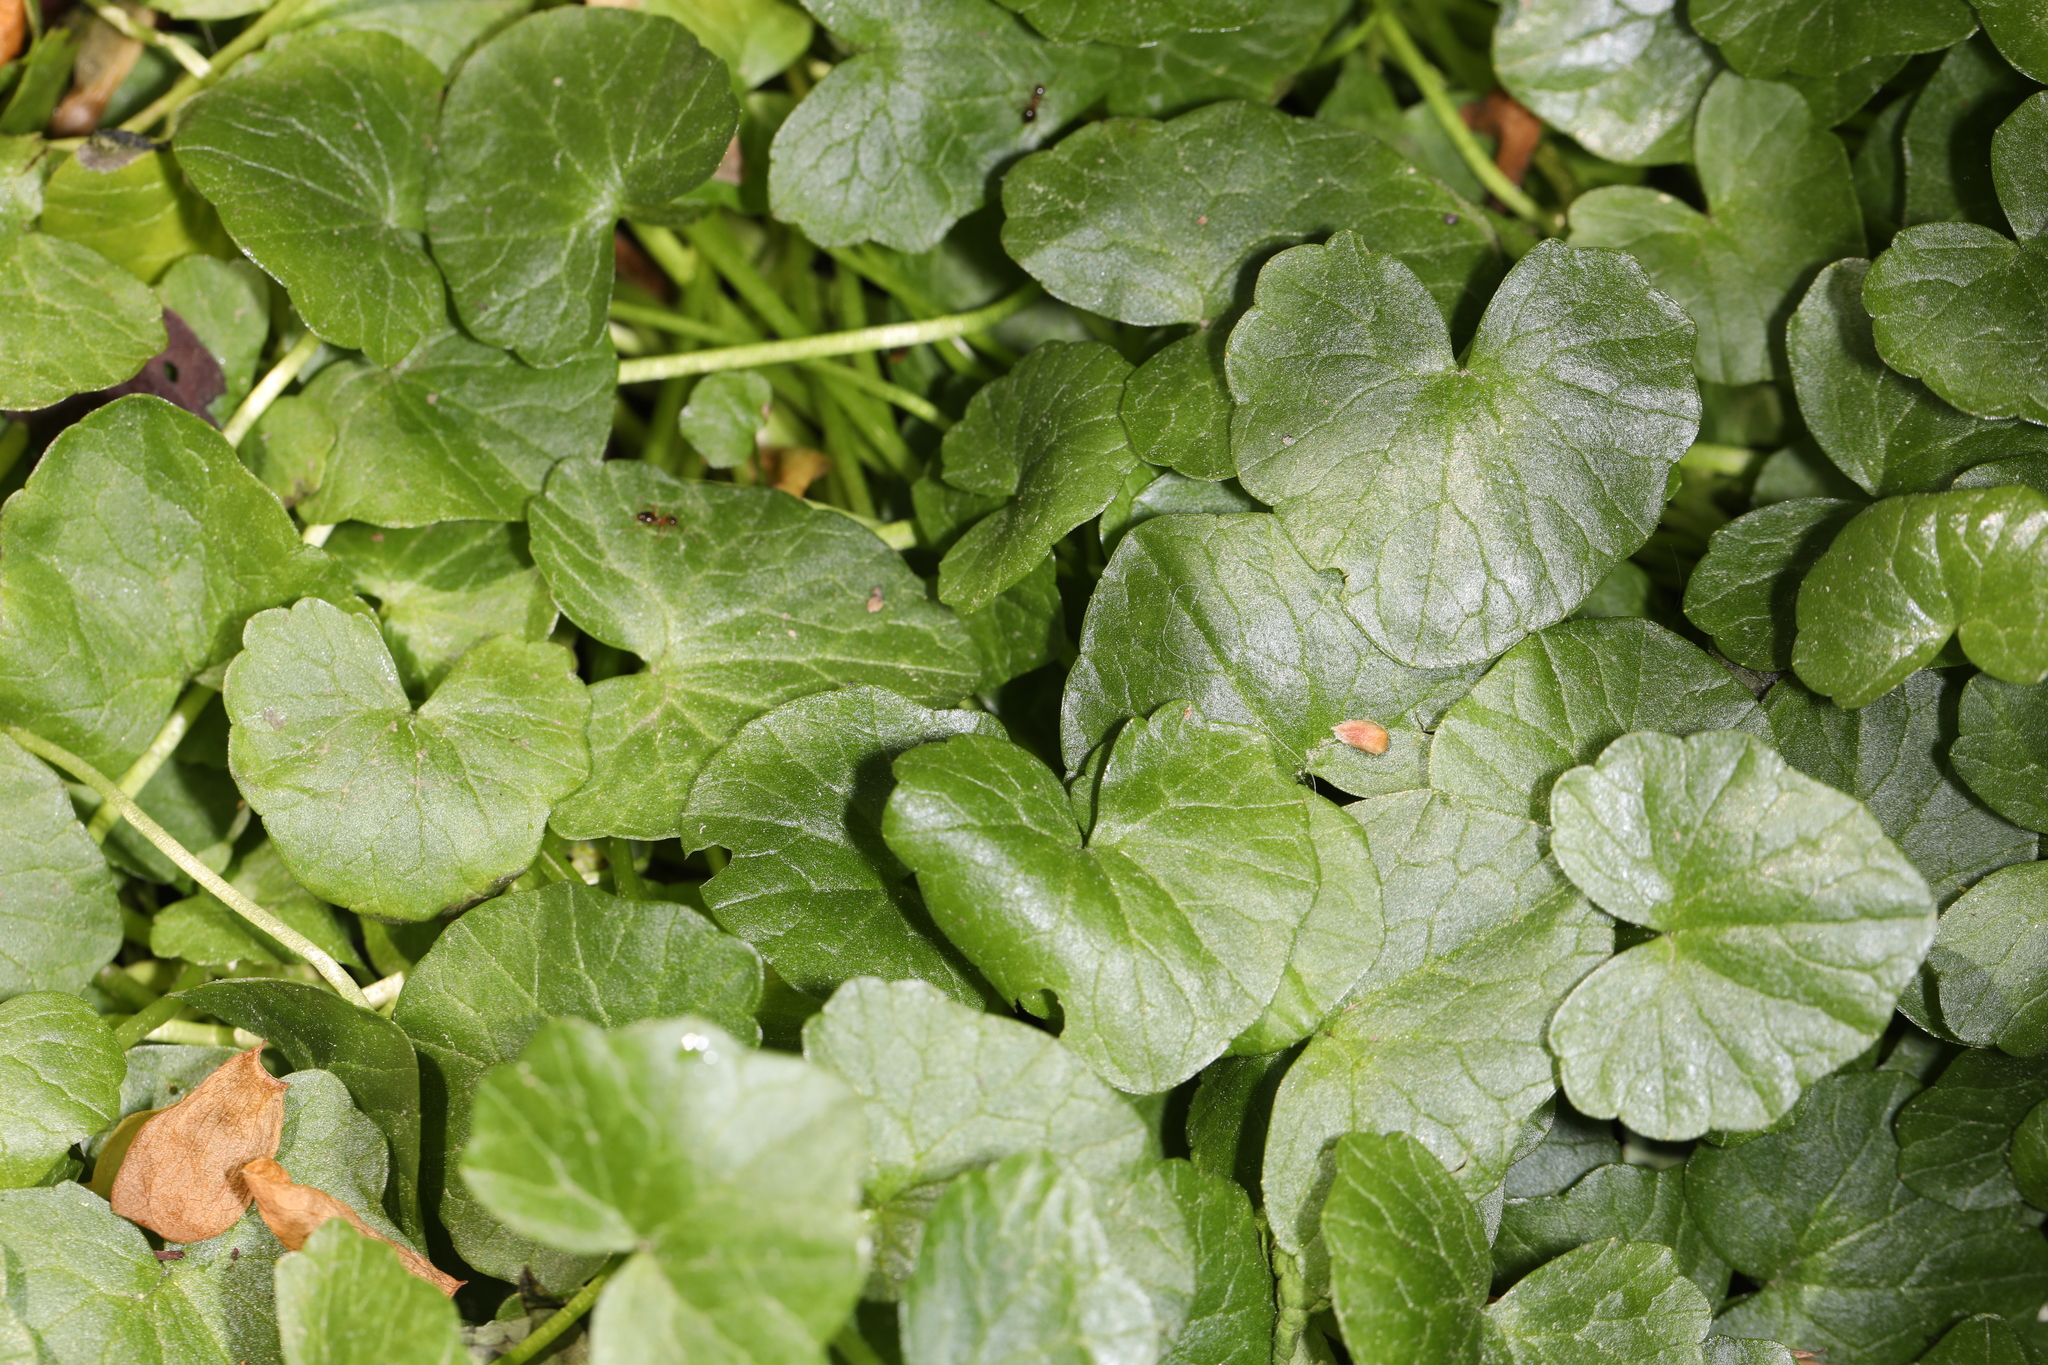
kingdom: Plantae
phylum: Tracheophyta
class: Magnoliopsida
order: Ranunculales
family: Ranunculaceae
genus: Ficaria
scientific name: Ficaria verna
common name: Lesser celandine
